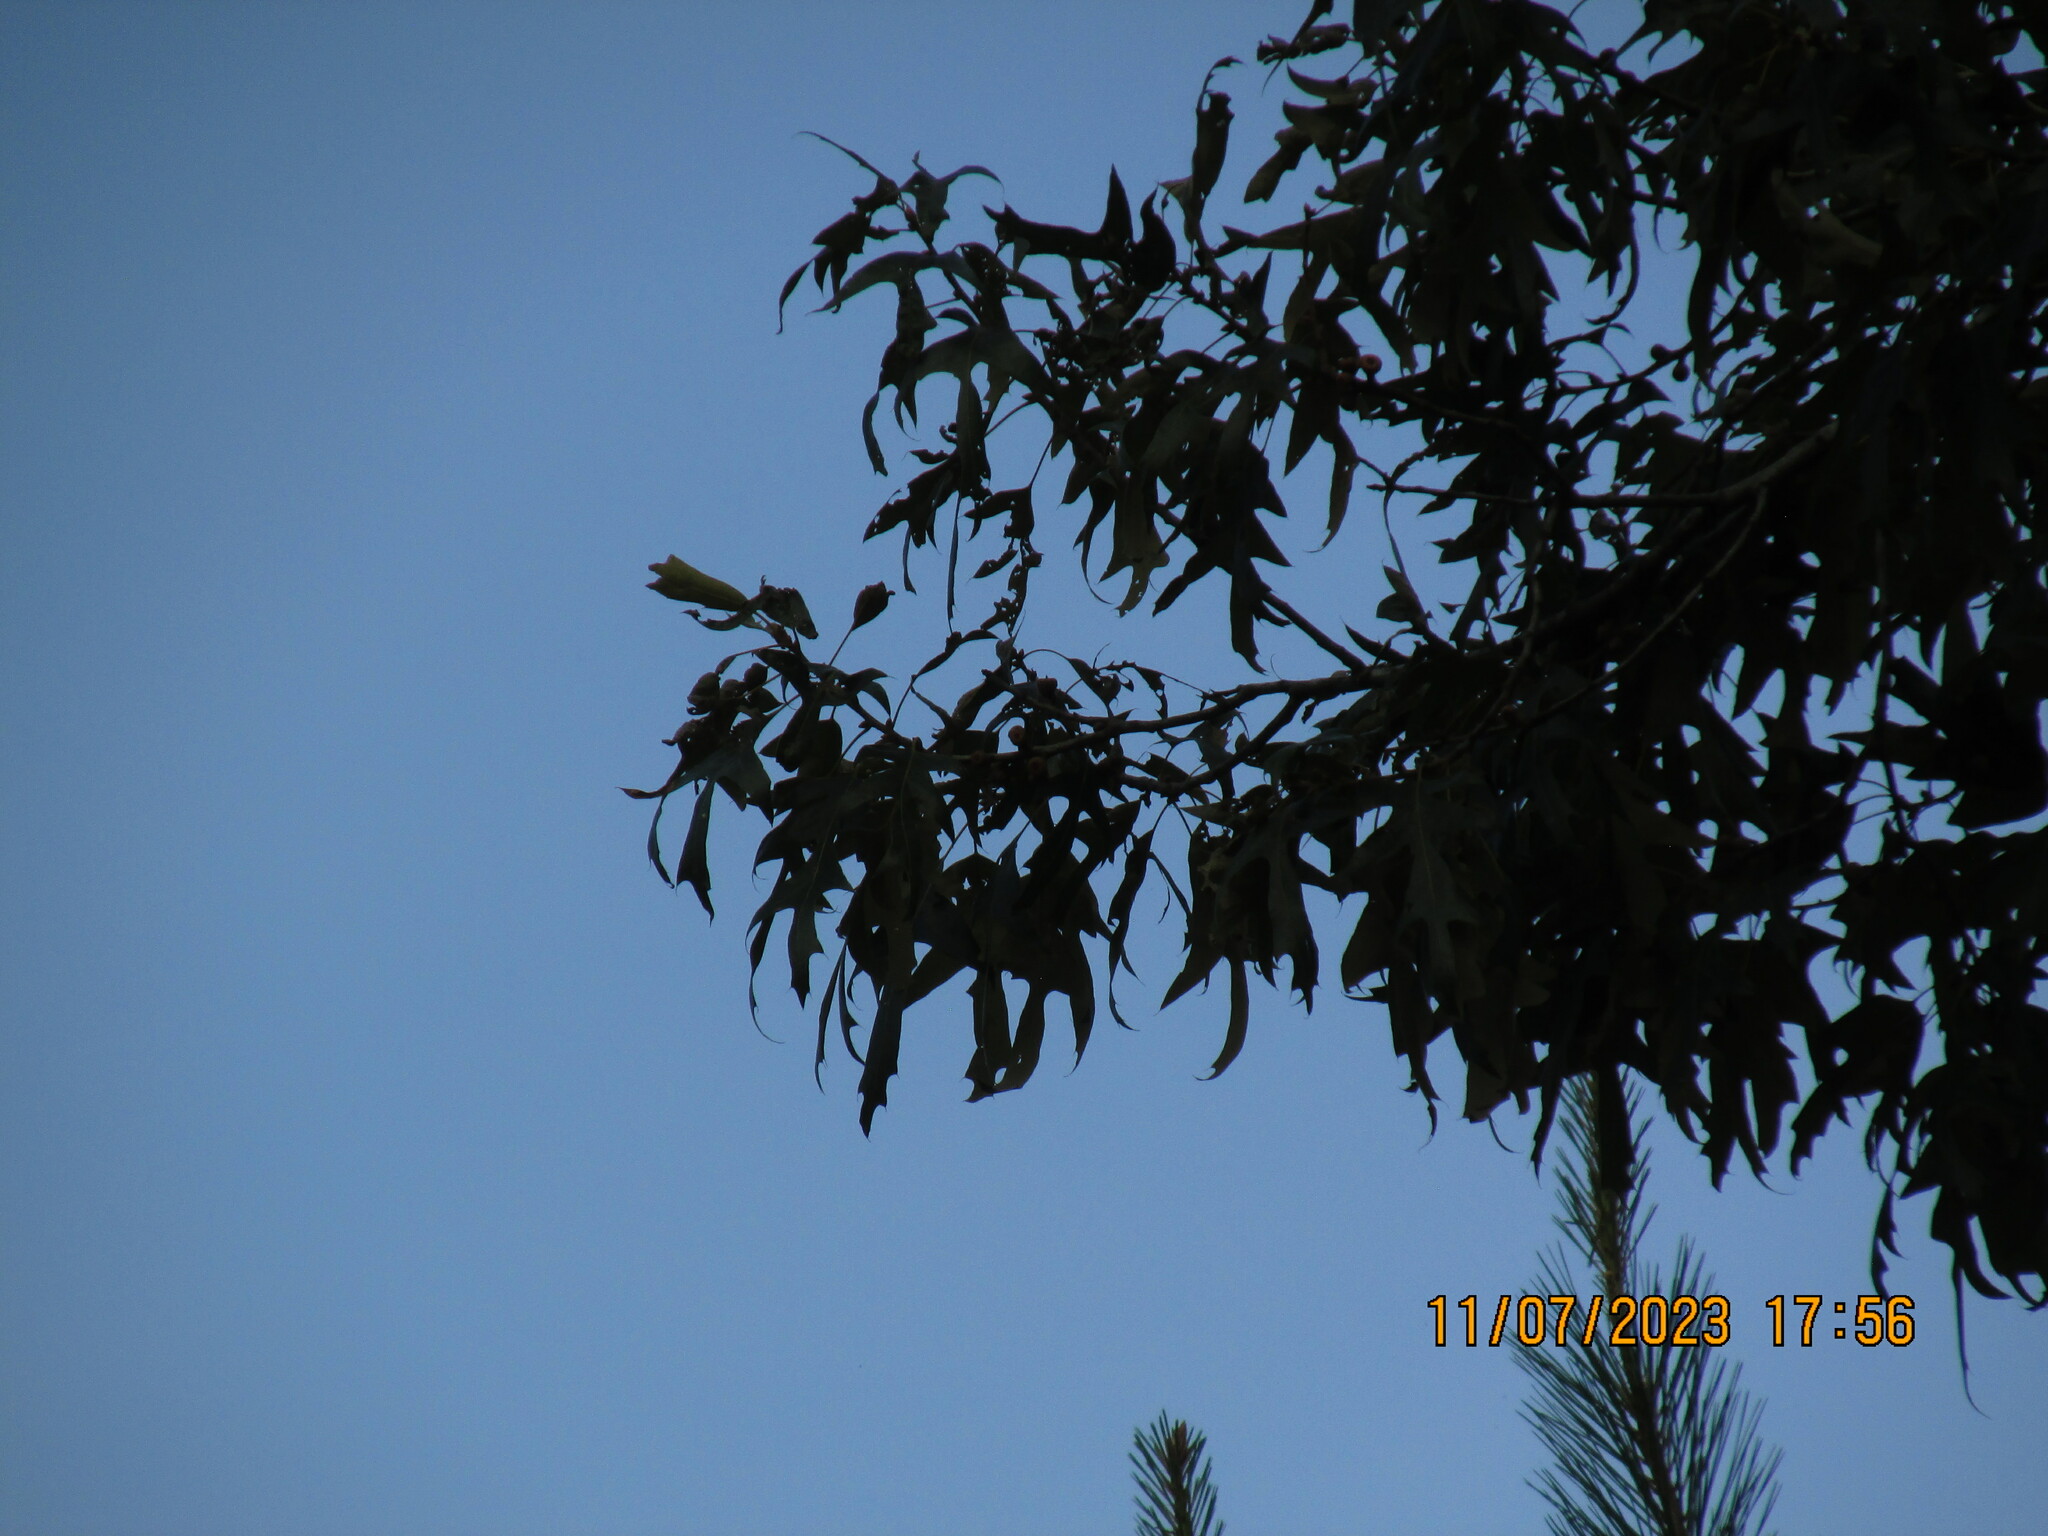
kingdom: Plantae
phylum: Tracheophyta
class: Magnoliopsida
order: Fagales
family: Fagaceae
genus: Quercus
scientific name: Quercus falcata
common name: Southern red oak
